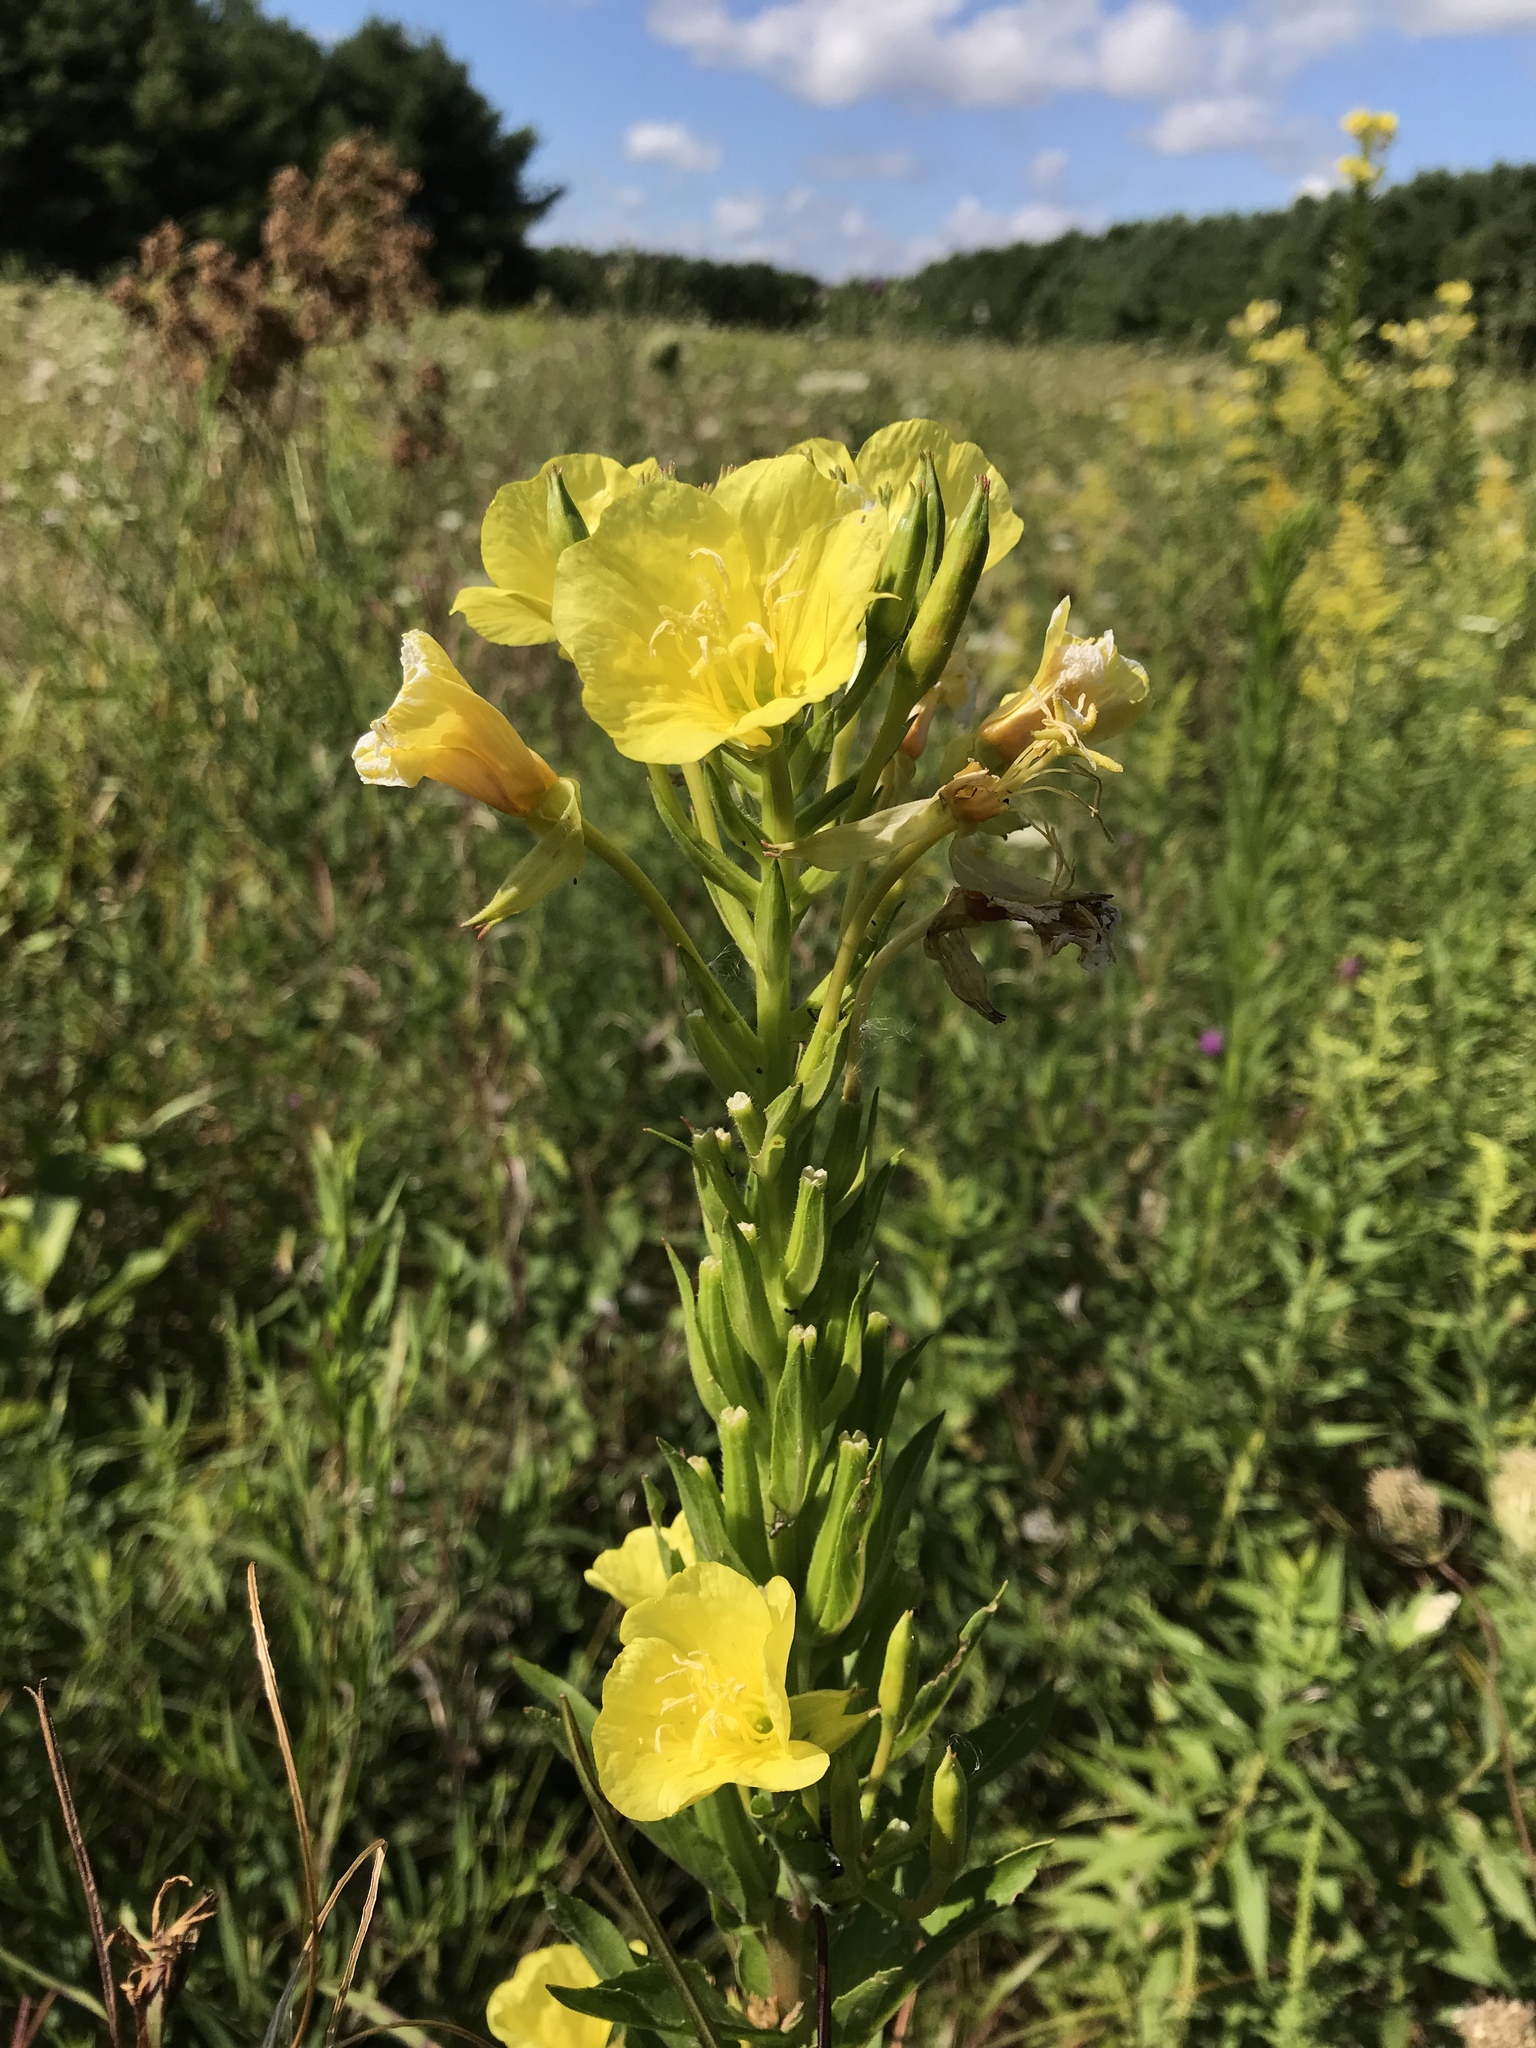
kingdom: Plantae
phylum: Tracheophyta
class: Magnoliopsida
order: Myrtales
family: Onagraceae
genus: Oenothera
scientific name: Oenothera biennis
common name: Common evening-primrose
